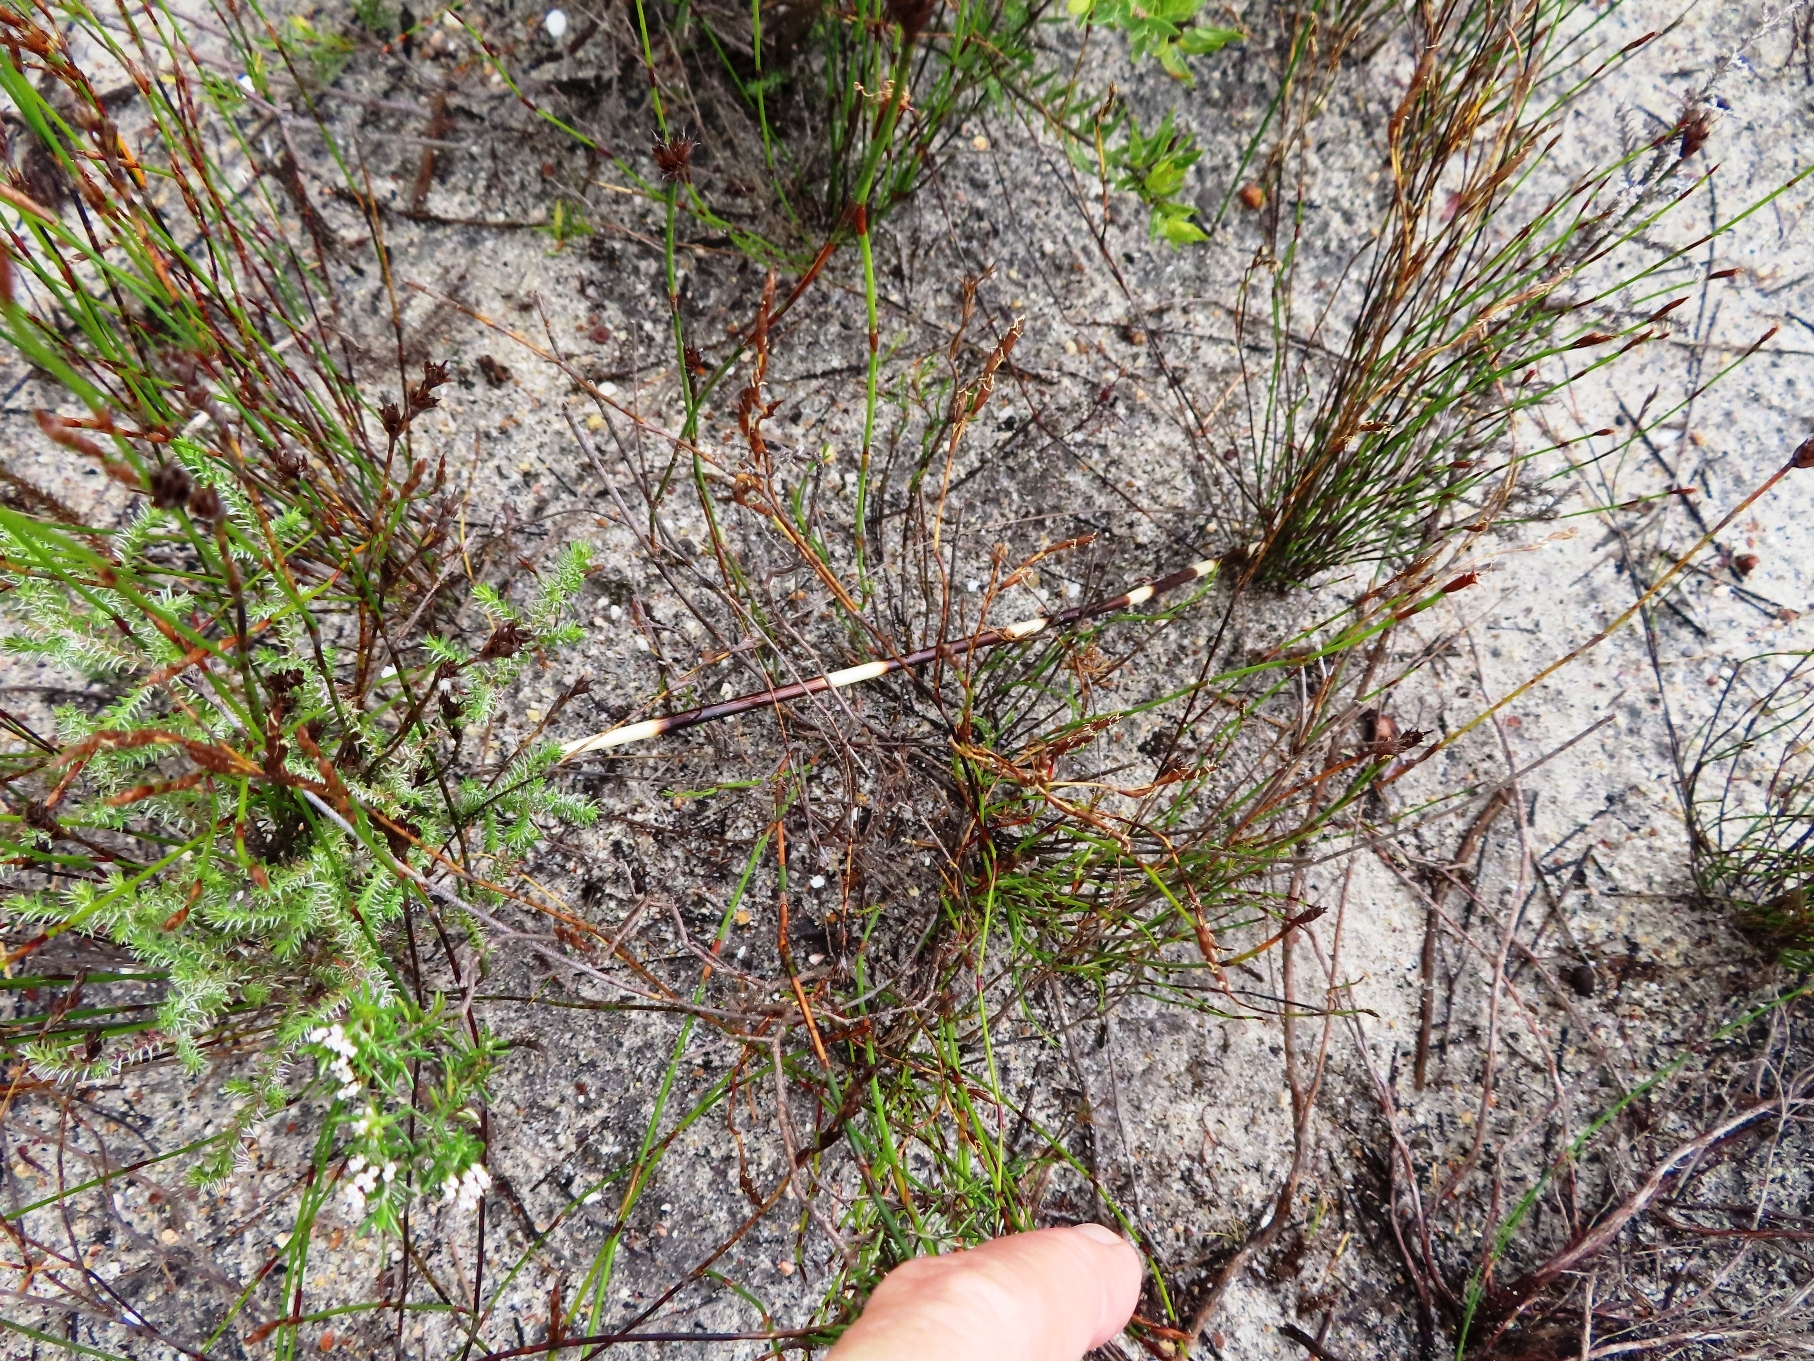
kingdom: Animalia
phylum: Chordata
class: Mammalia
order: Rodentia
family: Hystricidae
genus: Hystrix
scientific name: Hystrix africaeaustralis
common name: Cape porcupine
